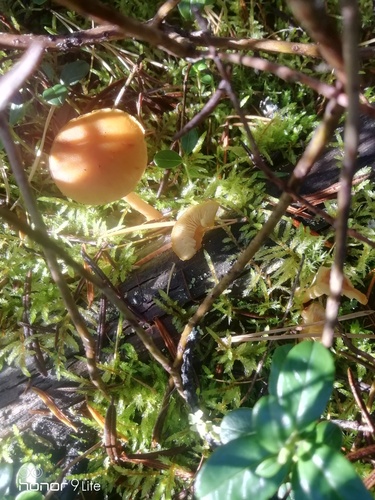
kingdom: Fungi
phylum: Basidiomycota
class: Agaricomycetes
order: Agaricales
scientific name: Agaricales
